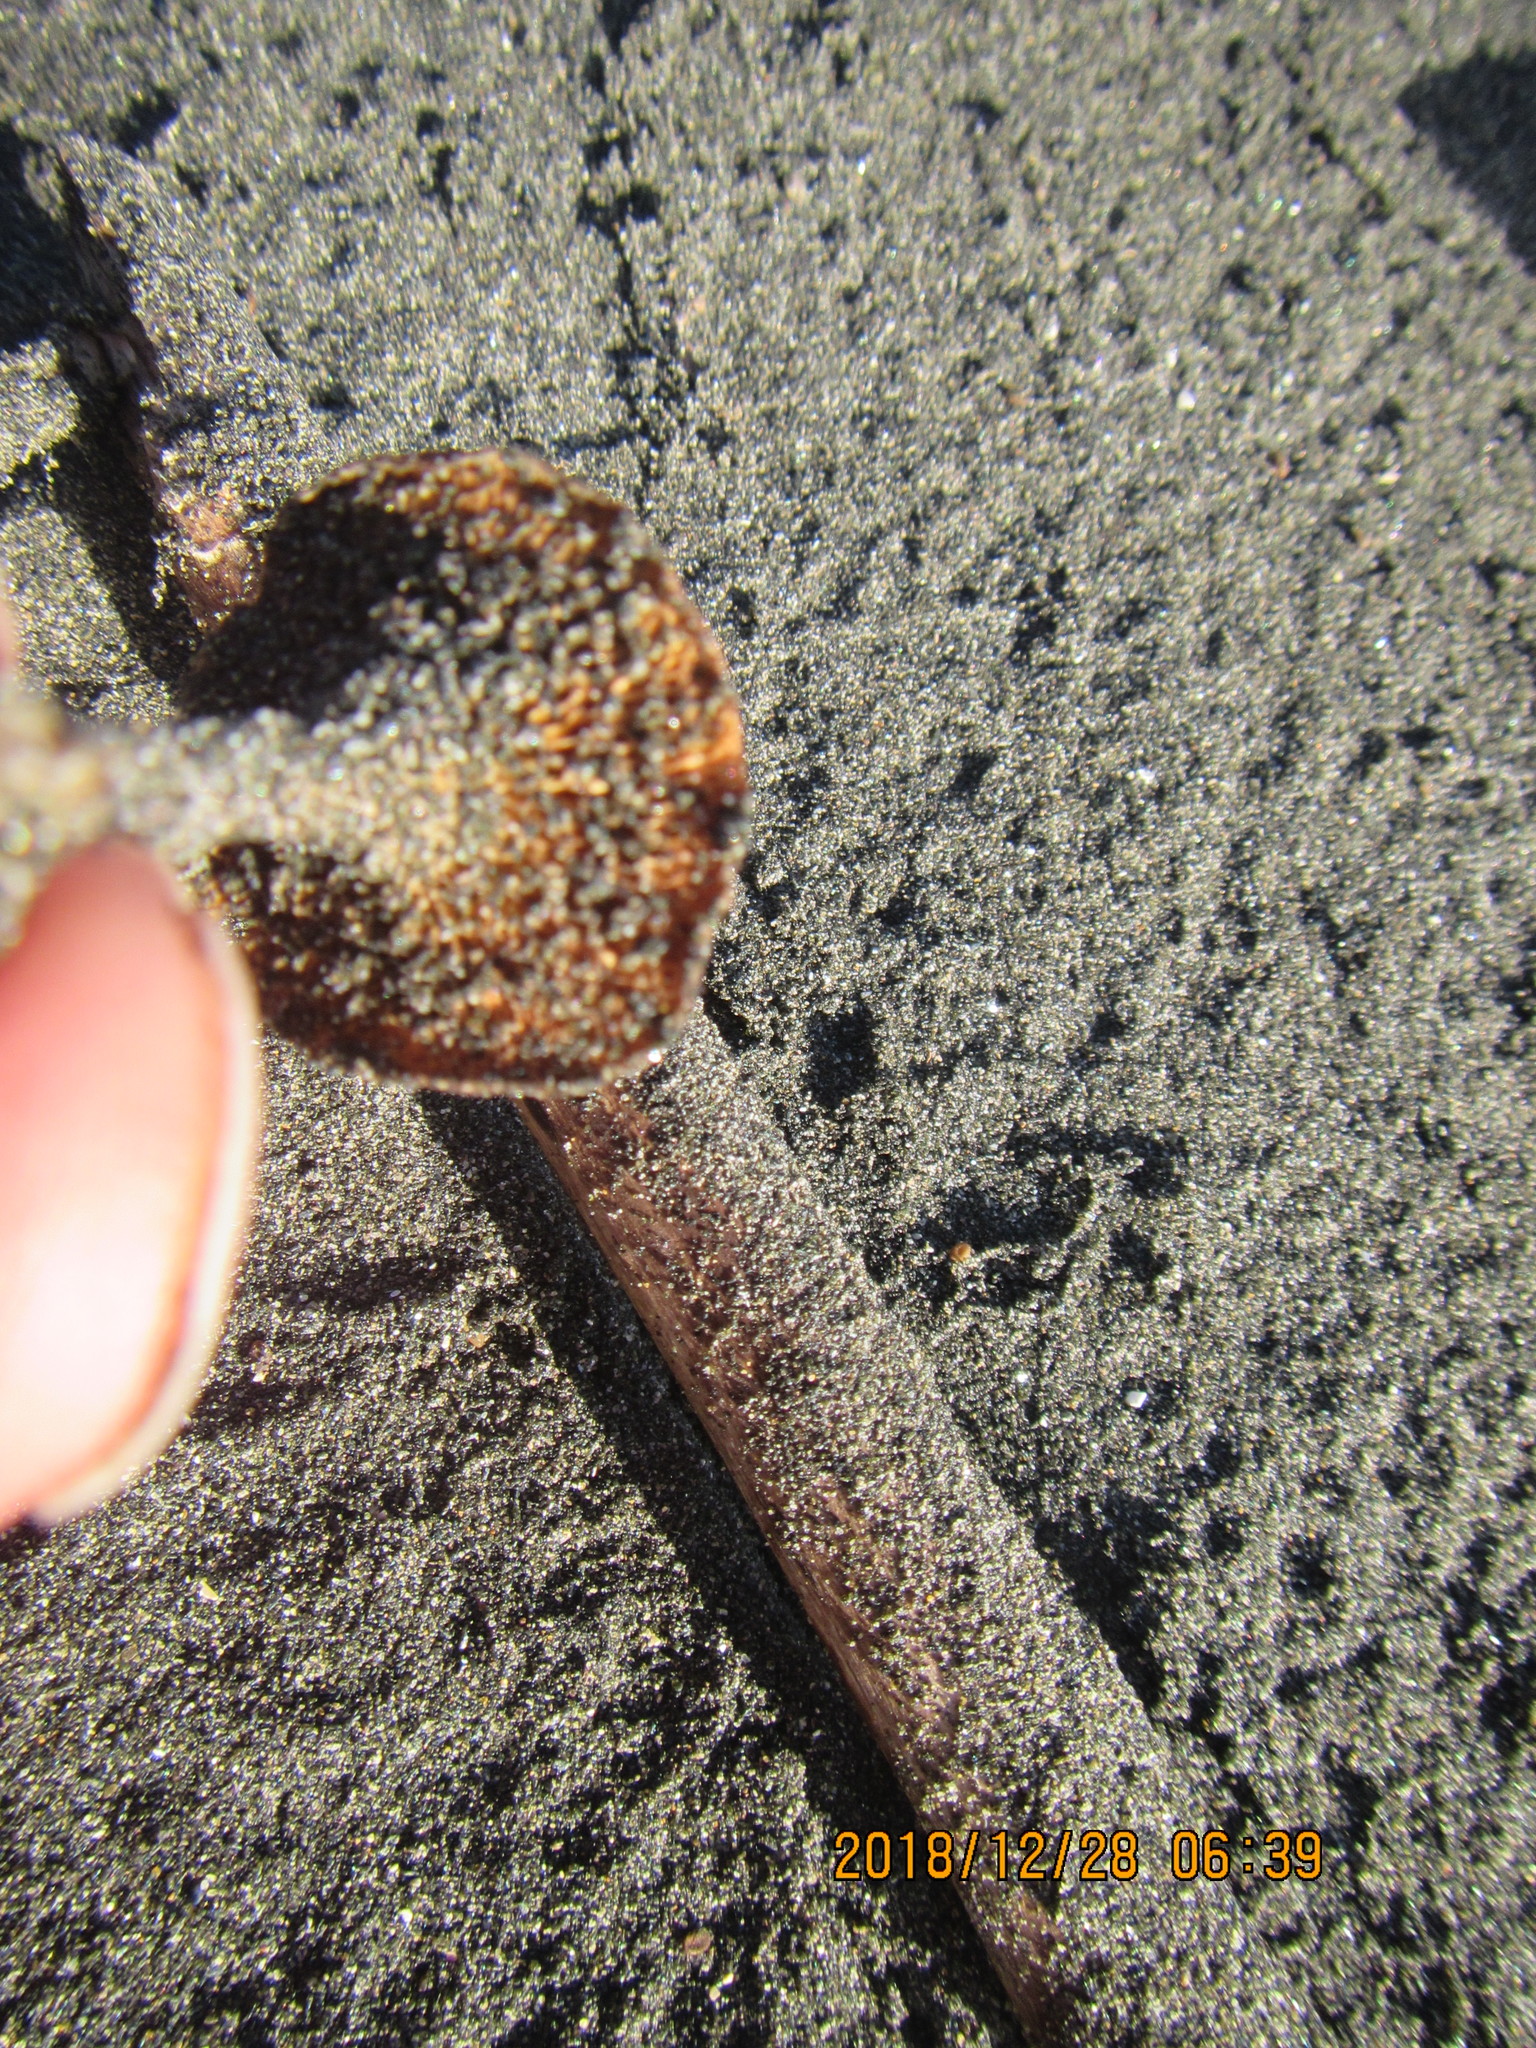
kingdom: Fungi
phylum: Basidiomycota
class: Agaricomycetes
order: Polyporales
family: Polyporaceae
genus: Lentinus
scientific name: Lentinus arcularius
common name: Spring polypore
